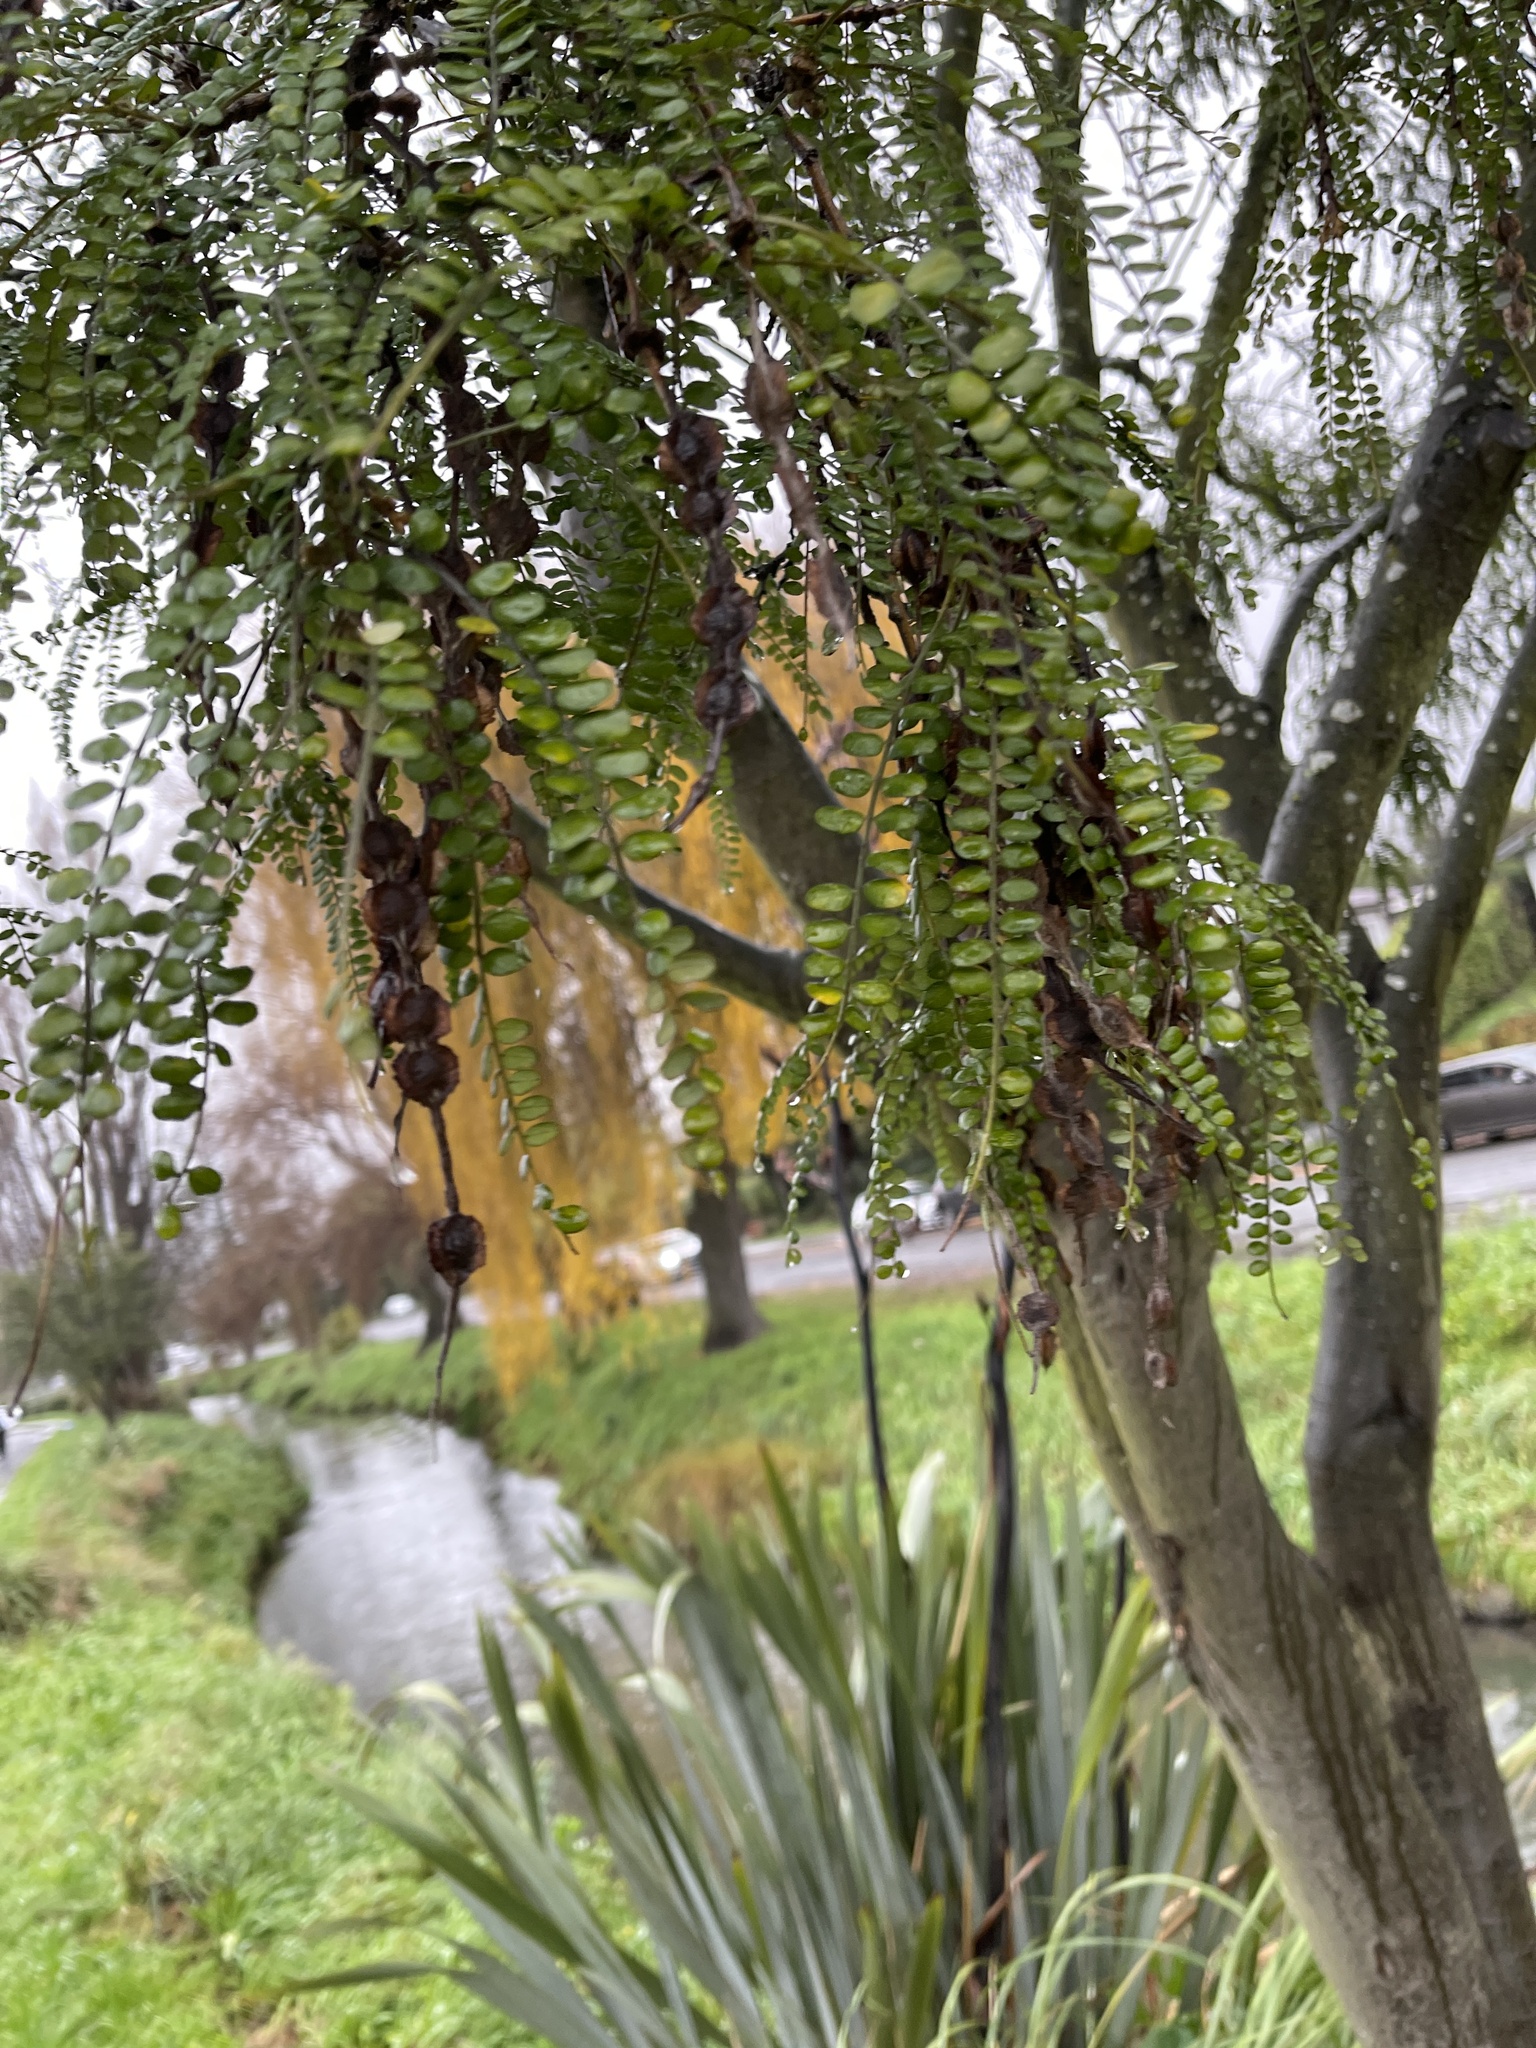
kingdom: Plantae
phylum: Tracheophyta
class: Magnoliopsida
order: Fabales
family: Fabaceae
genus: Sophora
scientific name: Sophora microphylla
